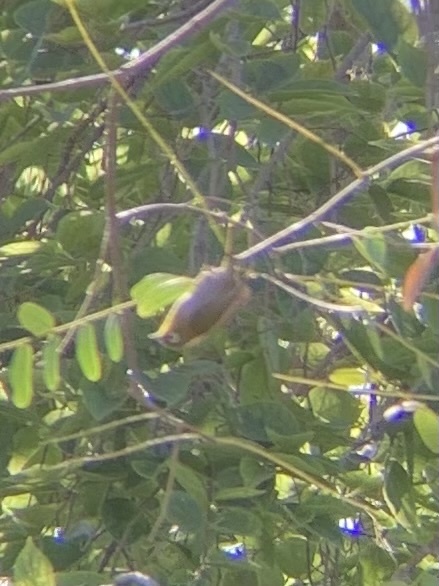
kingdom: Animalia
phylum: Chordata
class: Aves
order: Passeriformes
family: Zosteropidae
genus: Zosterops
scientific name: Zosterops virens
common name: Cape white-eye
